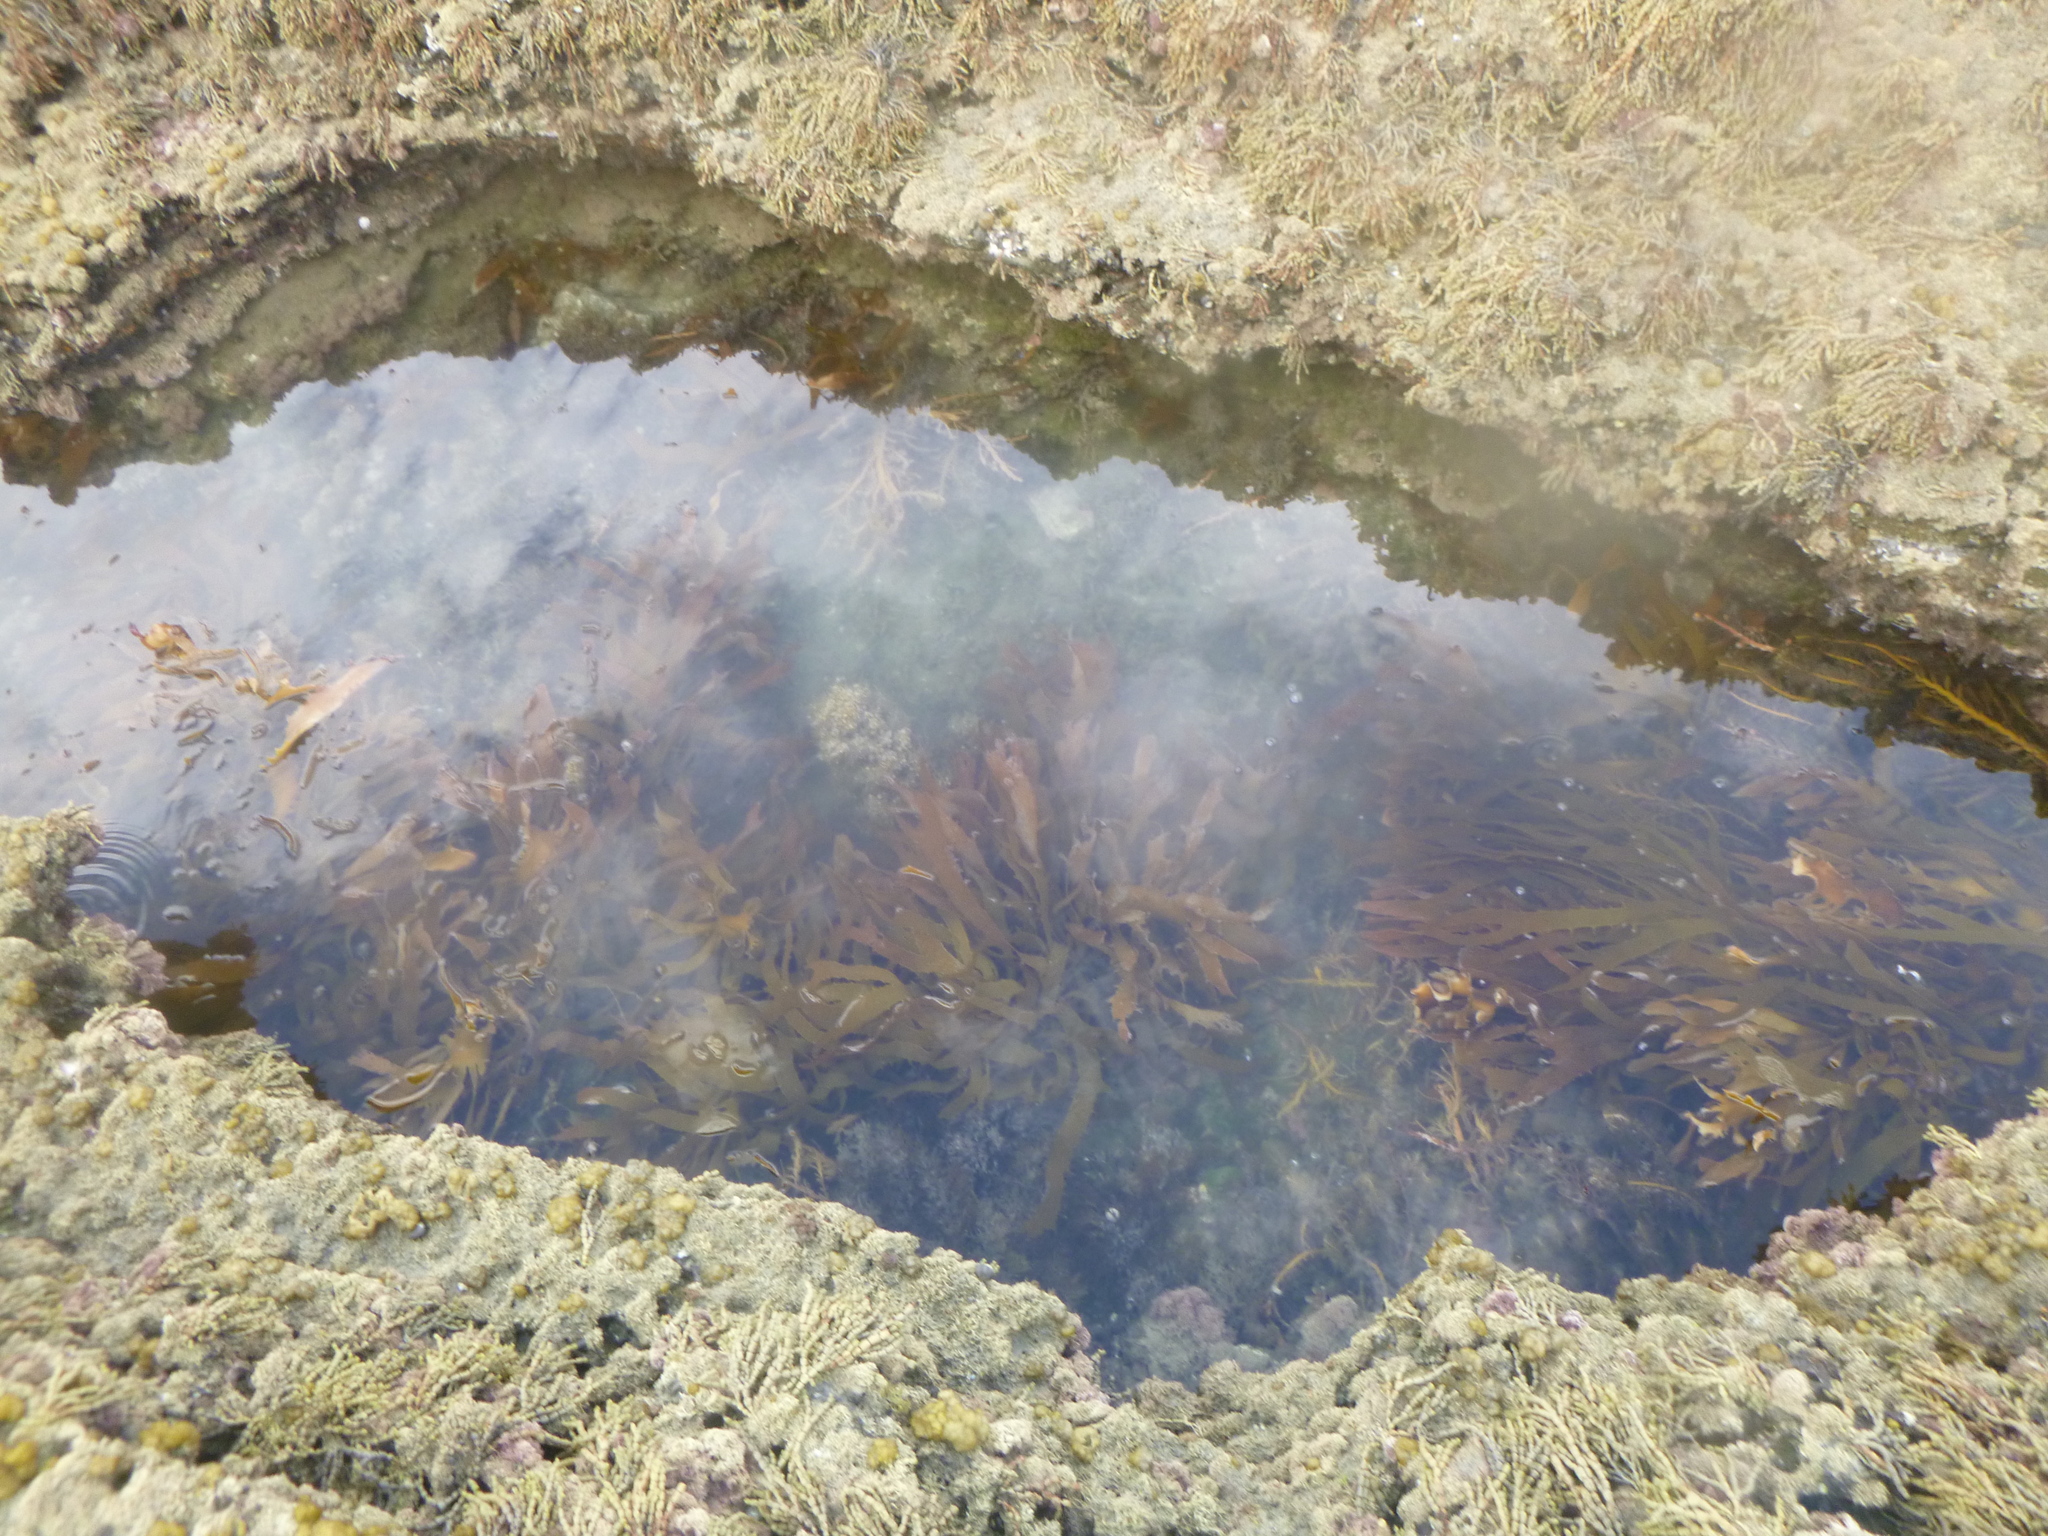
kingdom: Chromista
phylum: Ochrophyta
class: Phaeophyceae
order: Laminariales
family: Lessoniaceae
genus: Ecklonia
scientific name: Ecklonia radiata
